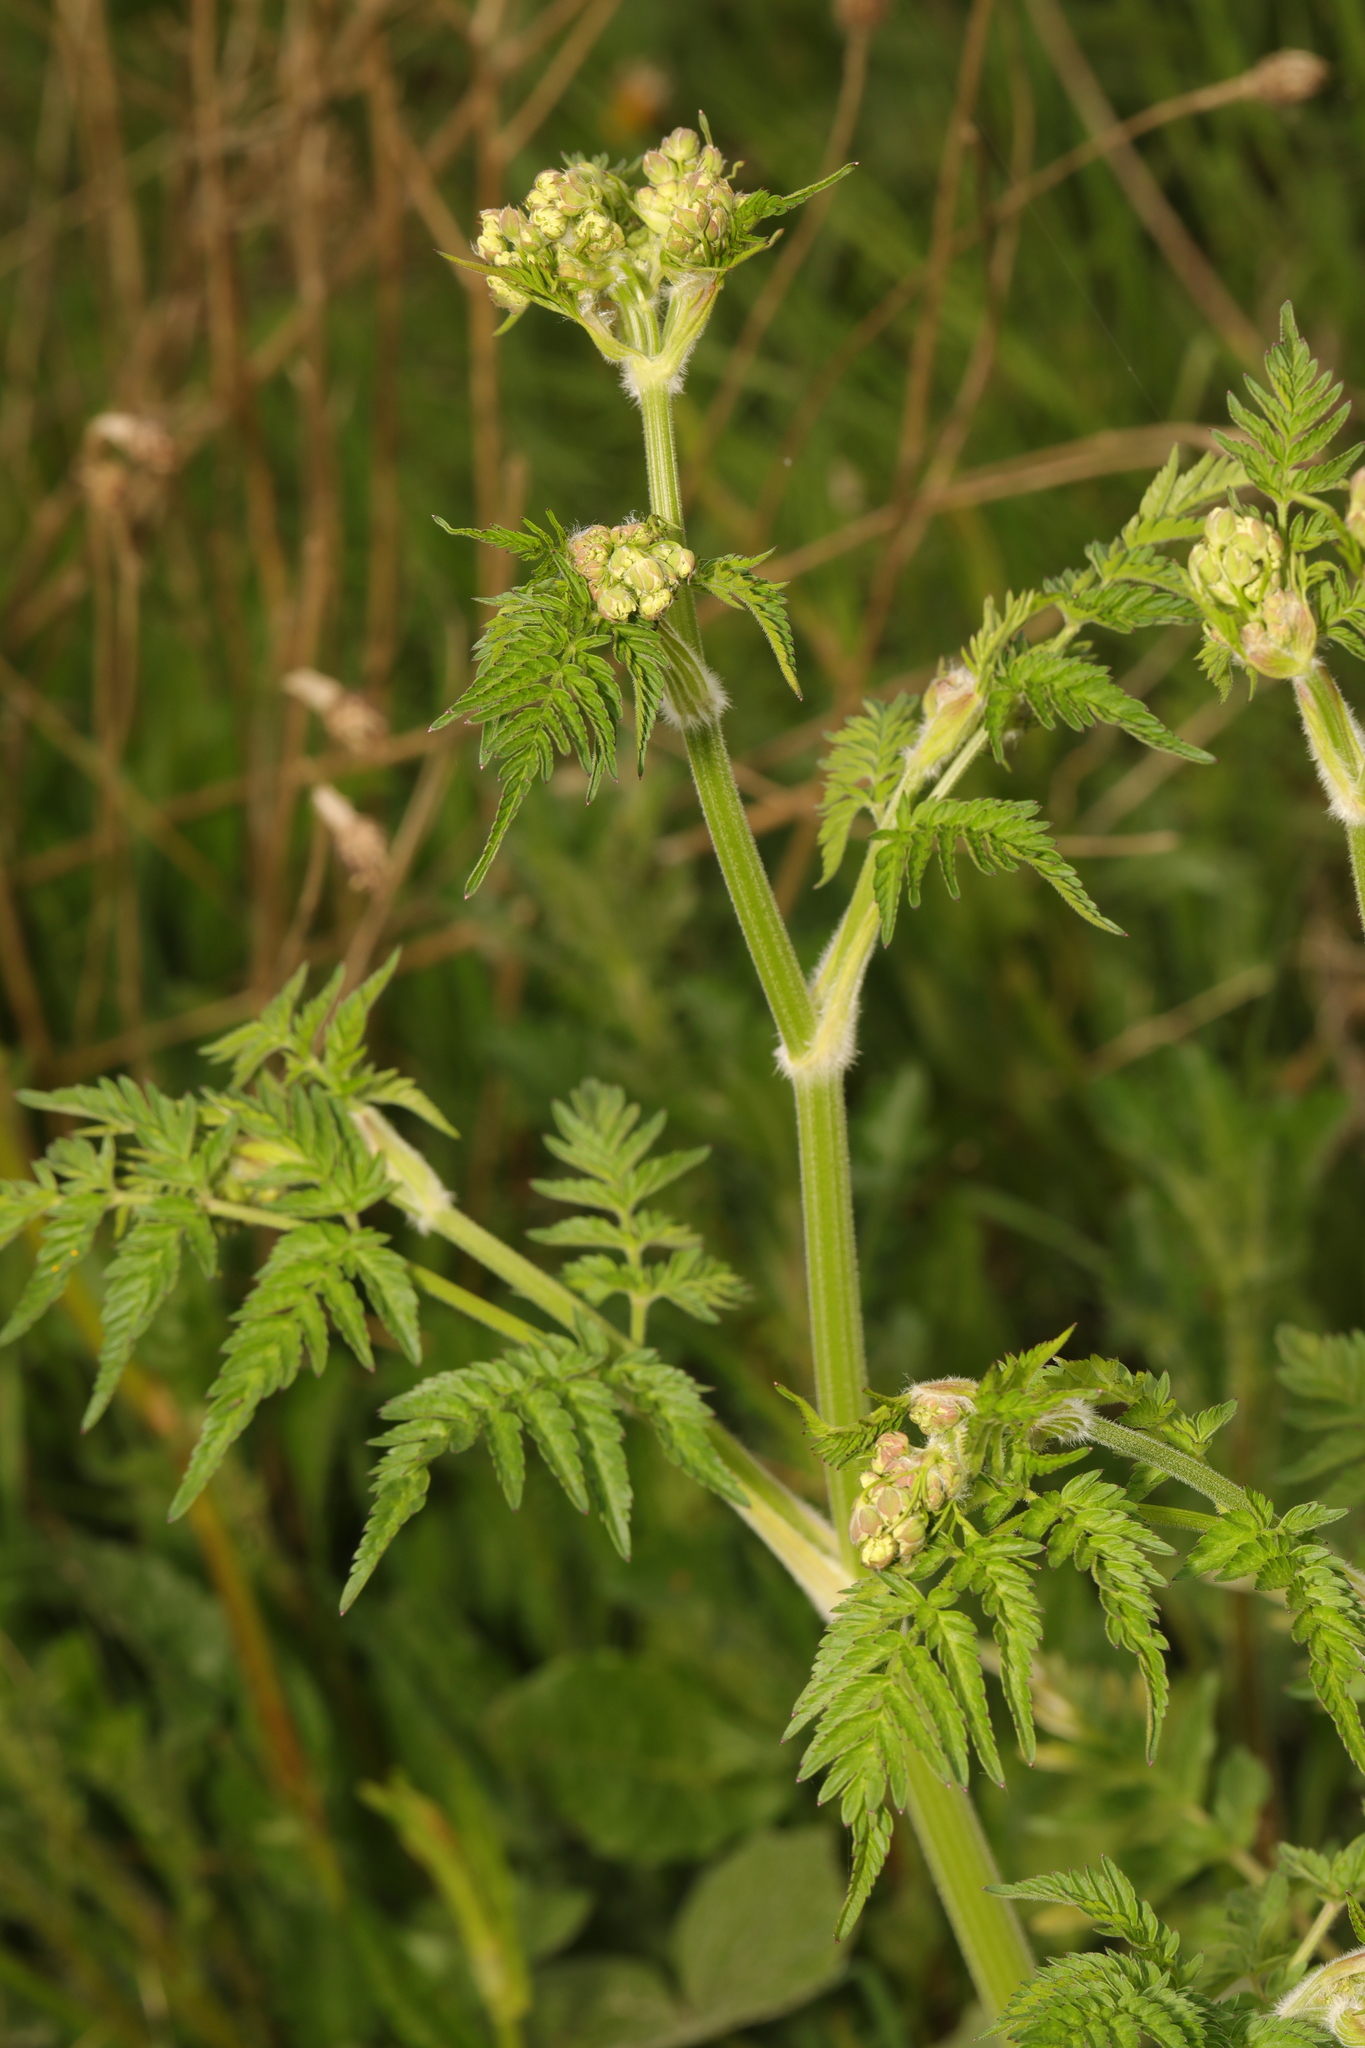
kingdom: Plantae
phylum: Tracheophyta
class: Magnoliopsida
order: Apiales
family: Apiaceae
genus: Anthriscus
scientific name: Anthriscus sylvestris
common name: Cow parsley
